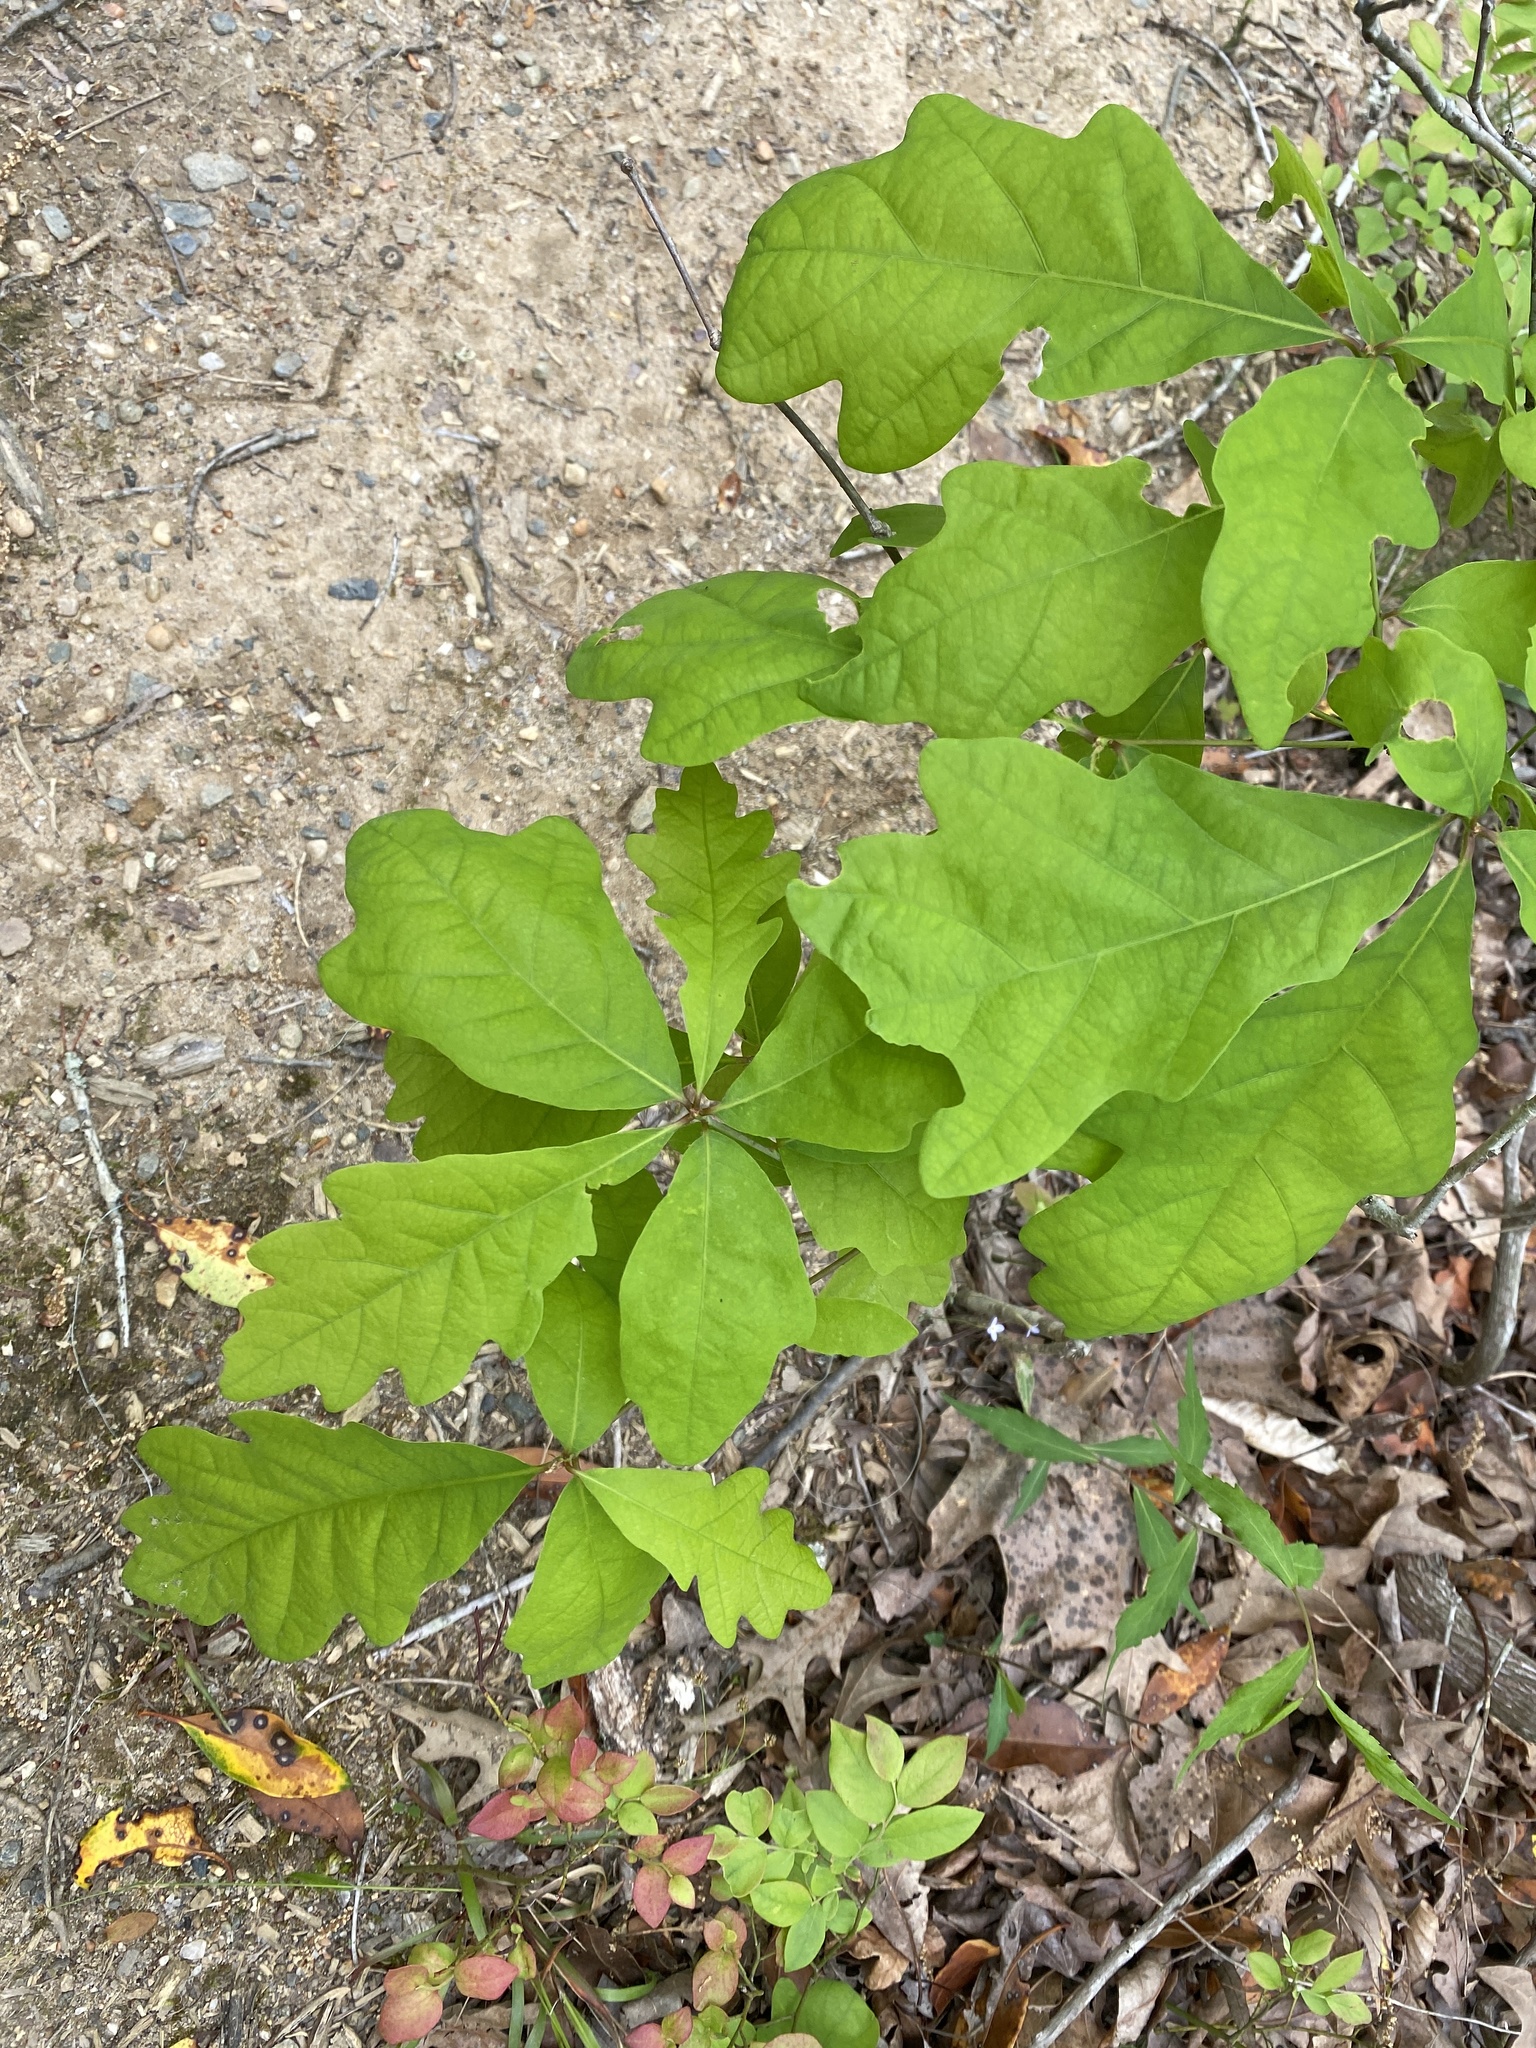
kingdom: Plantae
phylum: Tracheophyta
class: Magnoliopsida
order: Fagales
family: Fagaceae
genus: Quercus
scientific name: Quercus alba
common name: White oak
